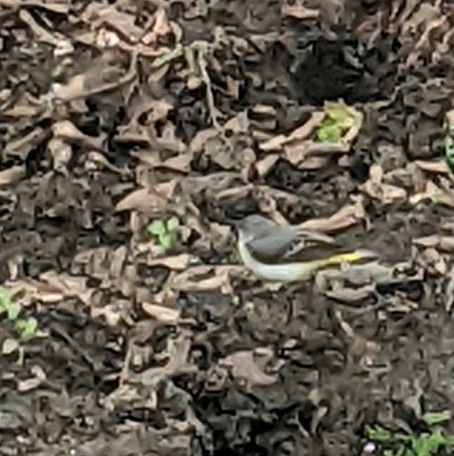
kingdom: Animalia
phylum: Chordata
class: Aves
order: Passeriformes
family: Motacillidae
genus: Motacilla
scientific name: Motacilla cinerea
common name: Grey wagtail
